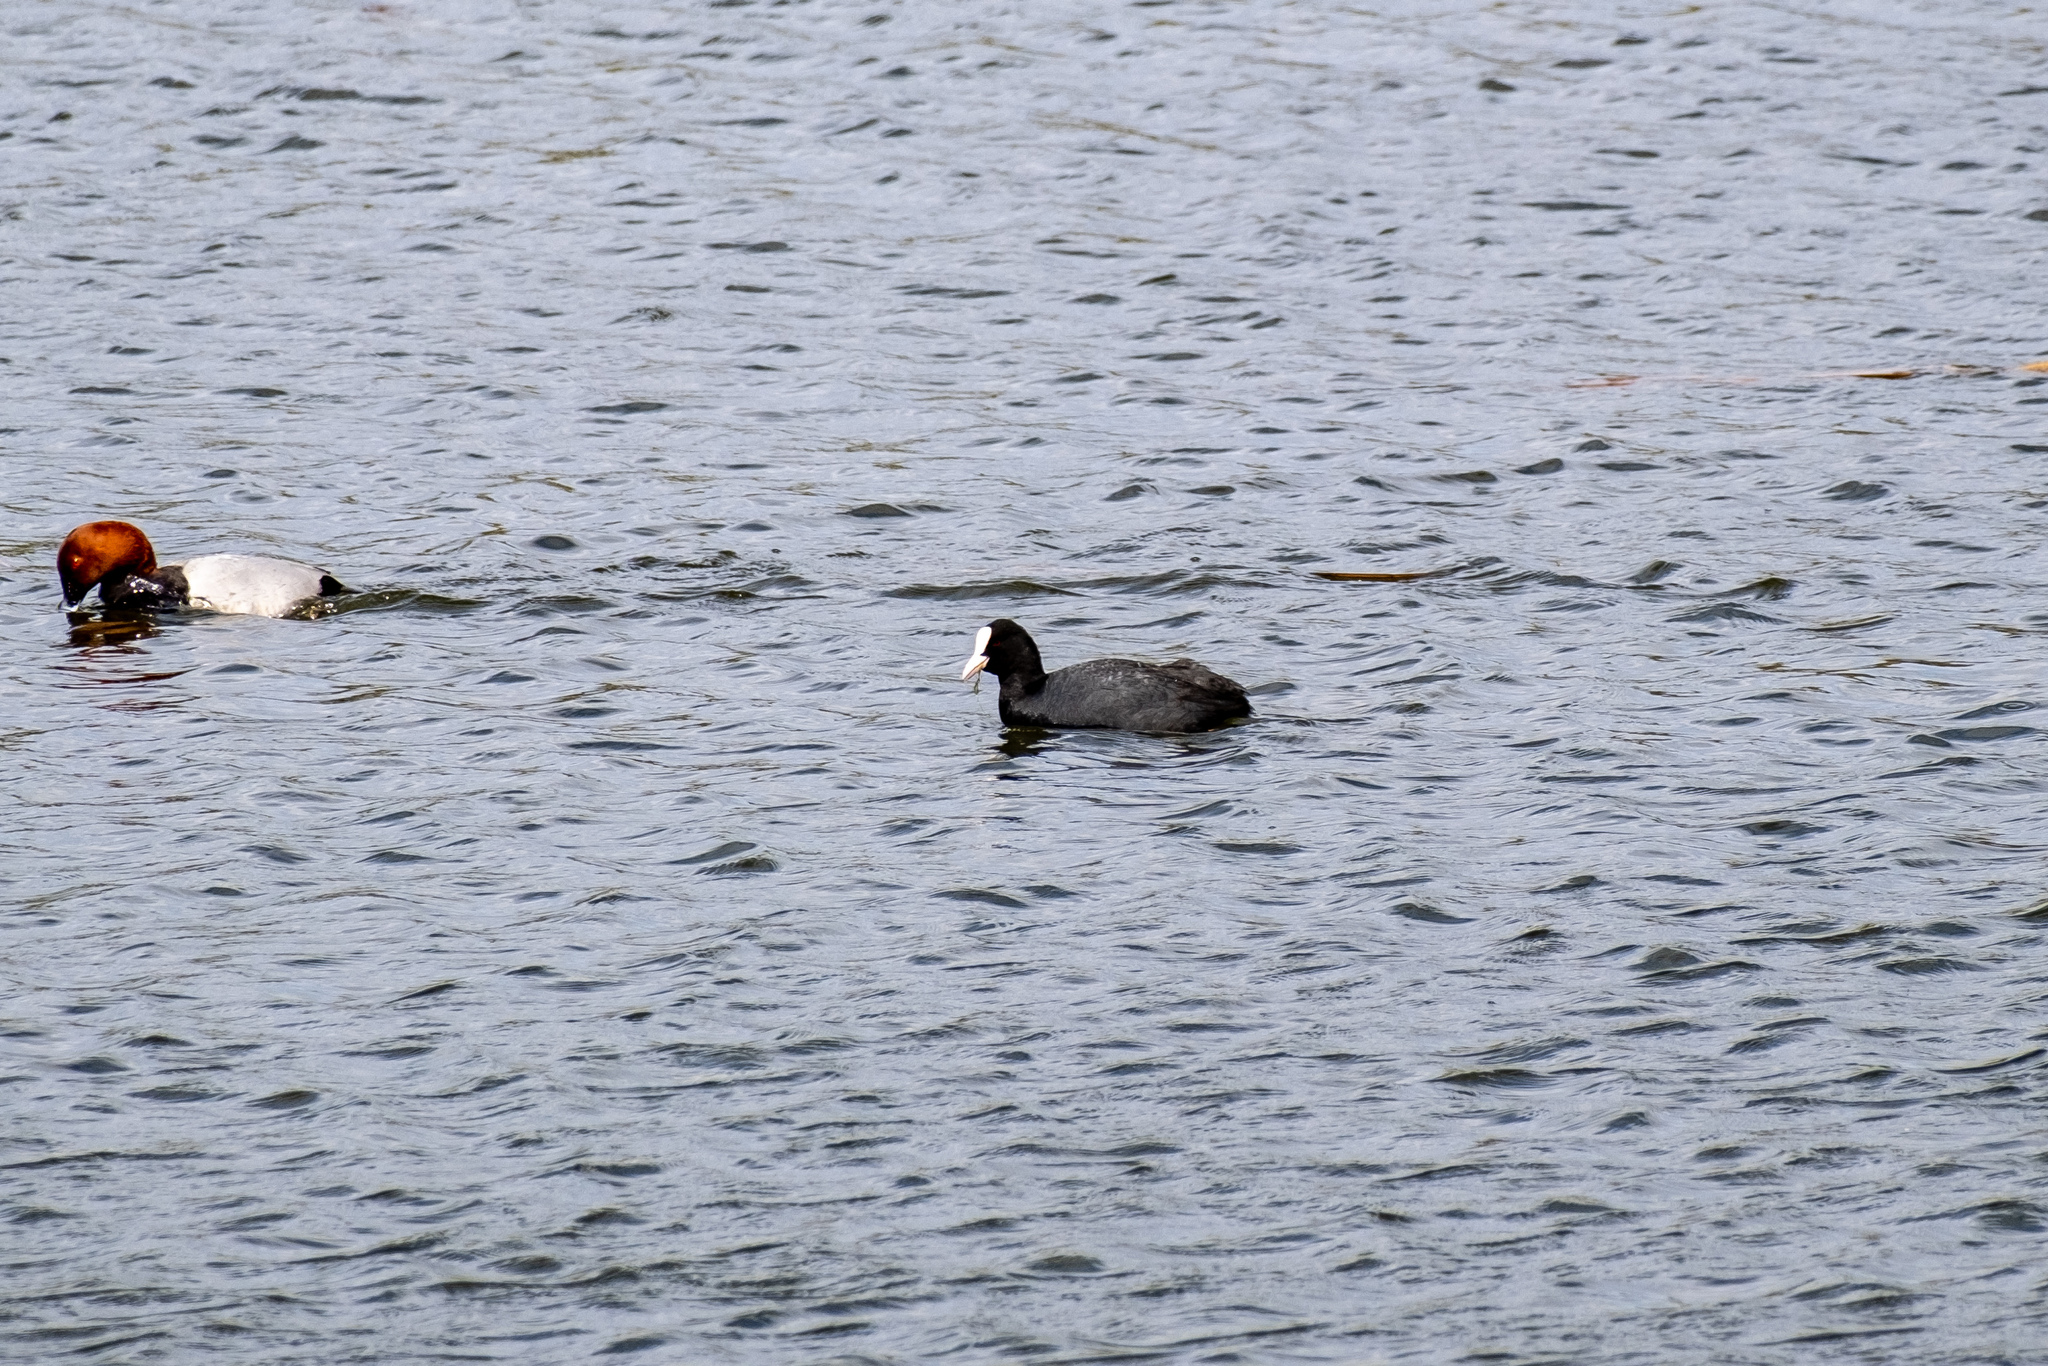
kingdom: Animalia
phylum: Chordata
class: Aves
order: Gruiformes
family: Rallidae
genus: Fulica
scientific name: Fulica atra
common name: Eurasian coot
